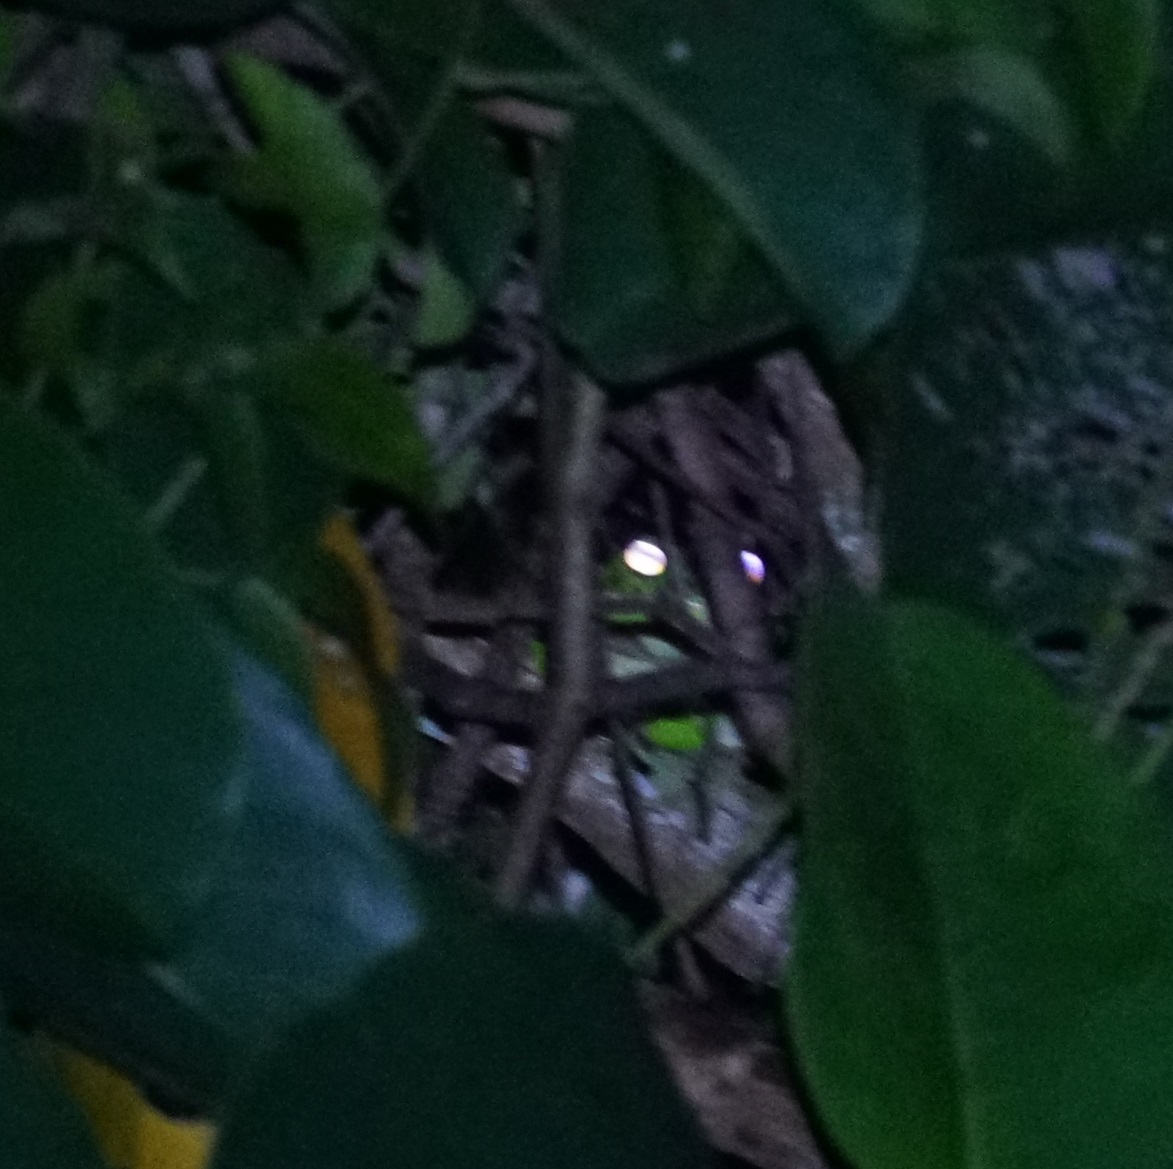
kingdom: Animalia
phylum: Chordata
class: Amphibia
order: Anura
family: Pelodryadidae
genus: Nyctimystes
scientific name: Nyctimystes infrafrenatus
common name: Australian giant treefrog
